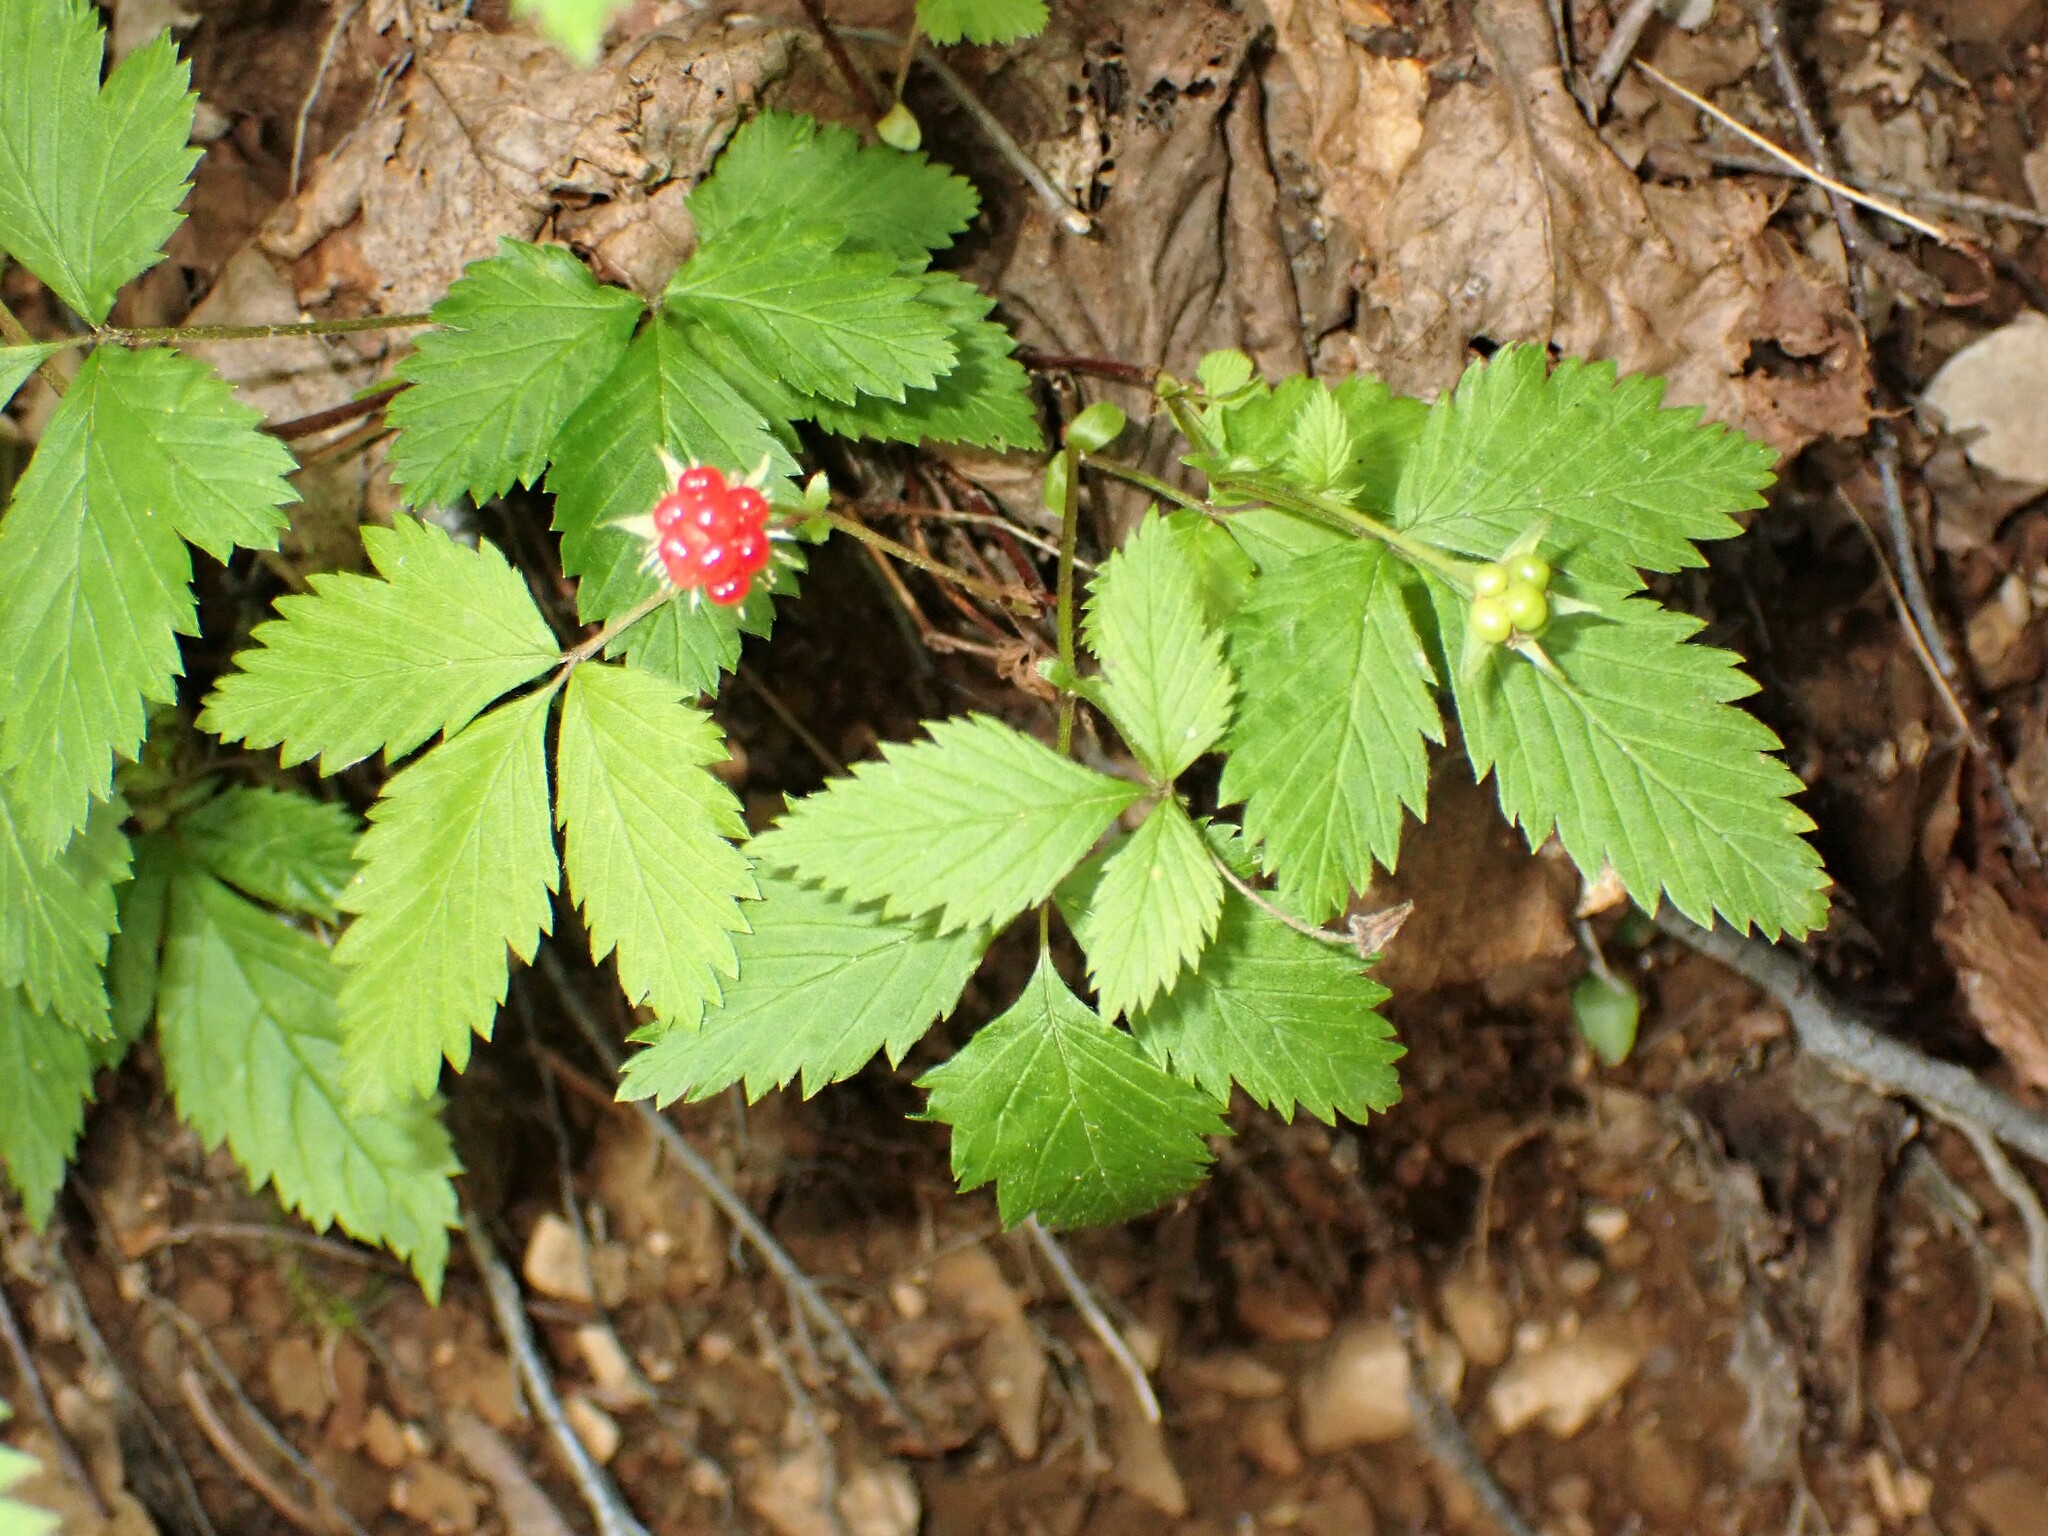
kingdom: Plantae
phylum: Tracheophyta
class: Magnoliopsida
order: Rosales
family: Rosaceae
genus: Rubus
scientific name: Rubus pubescens
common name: Dwarf raspberry
